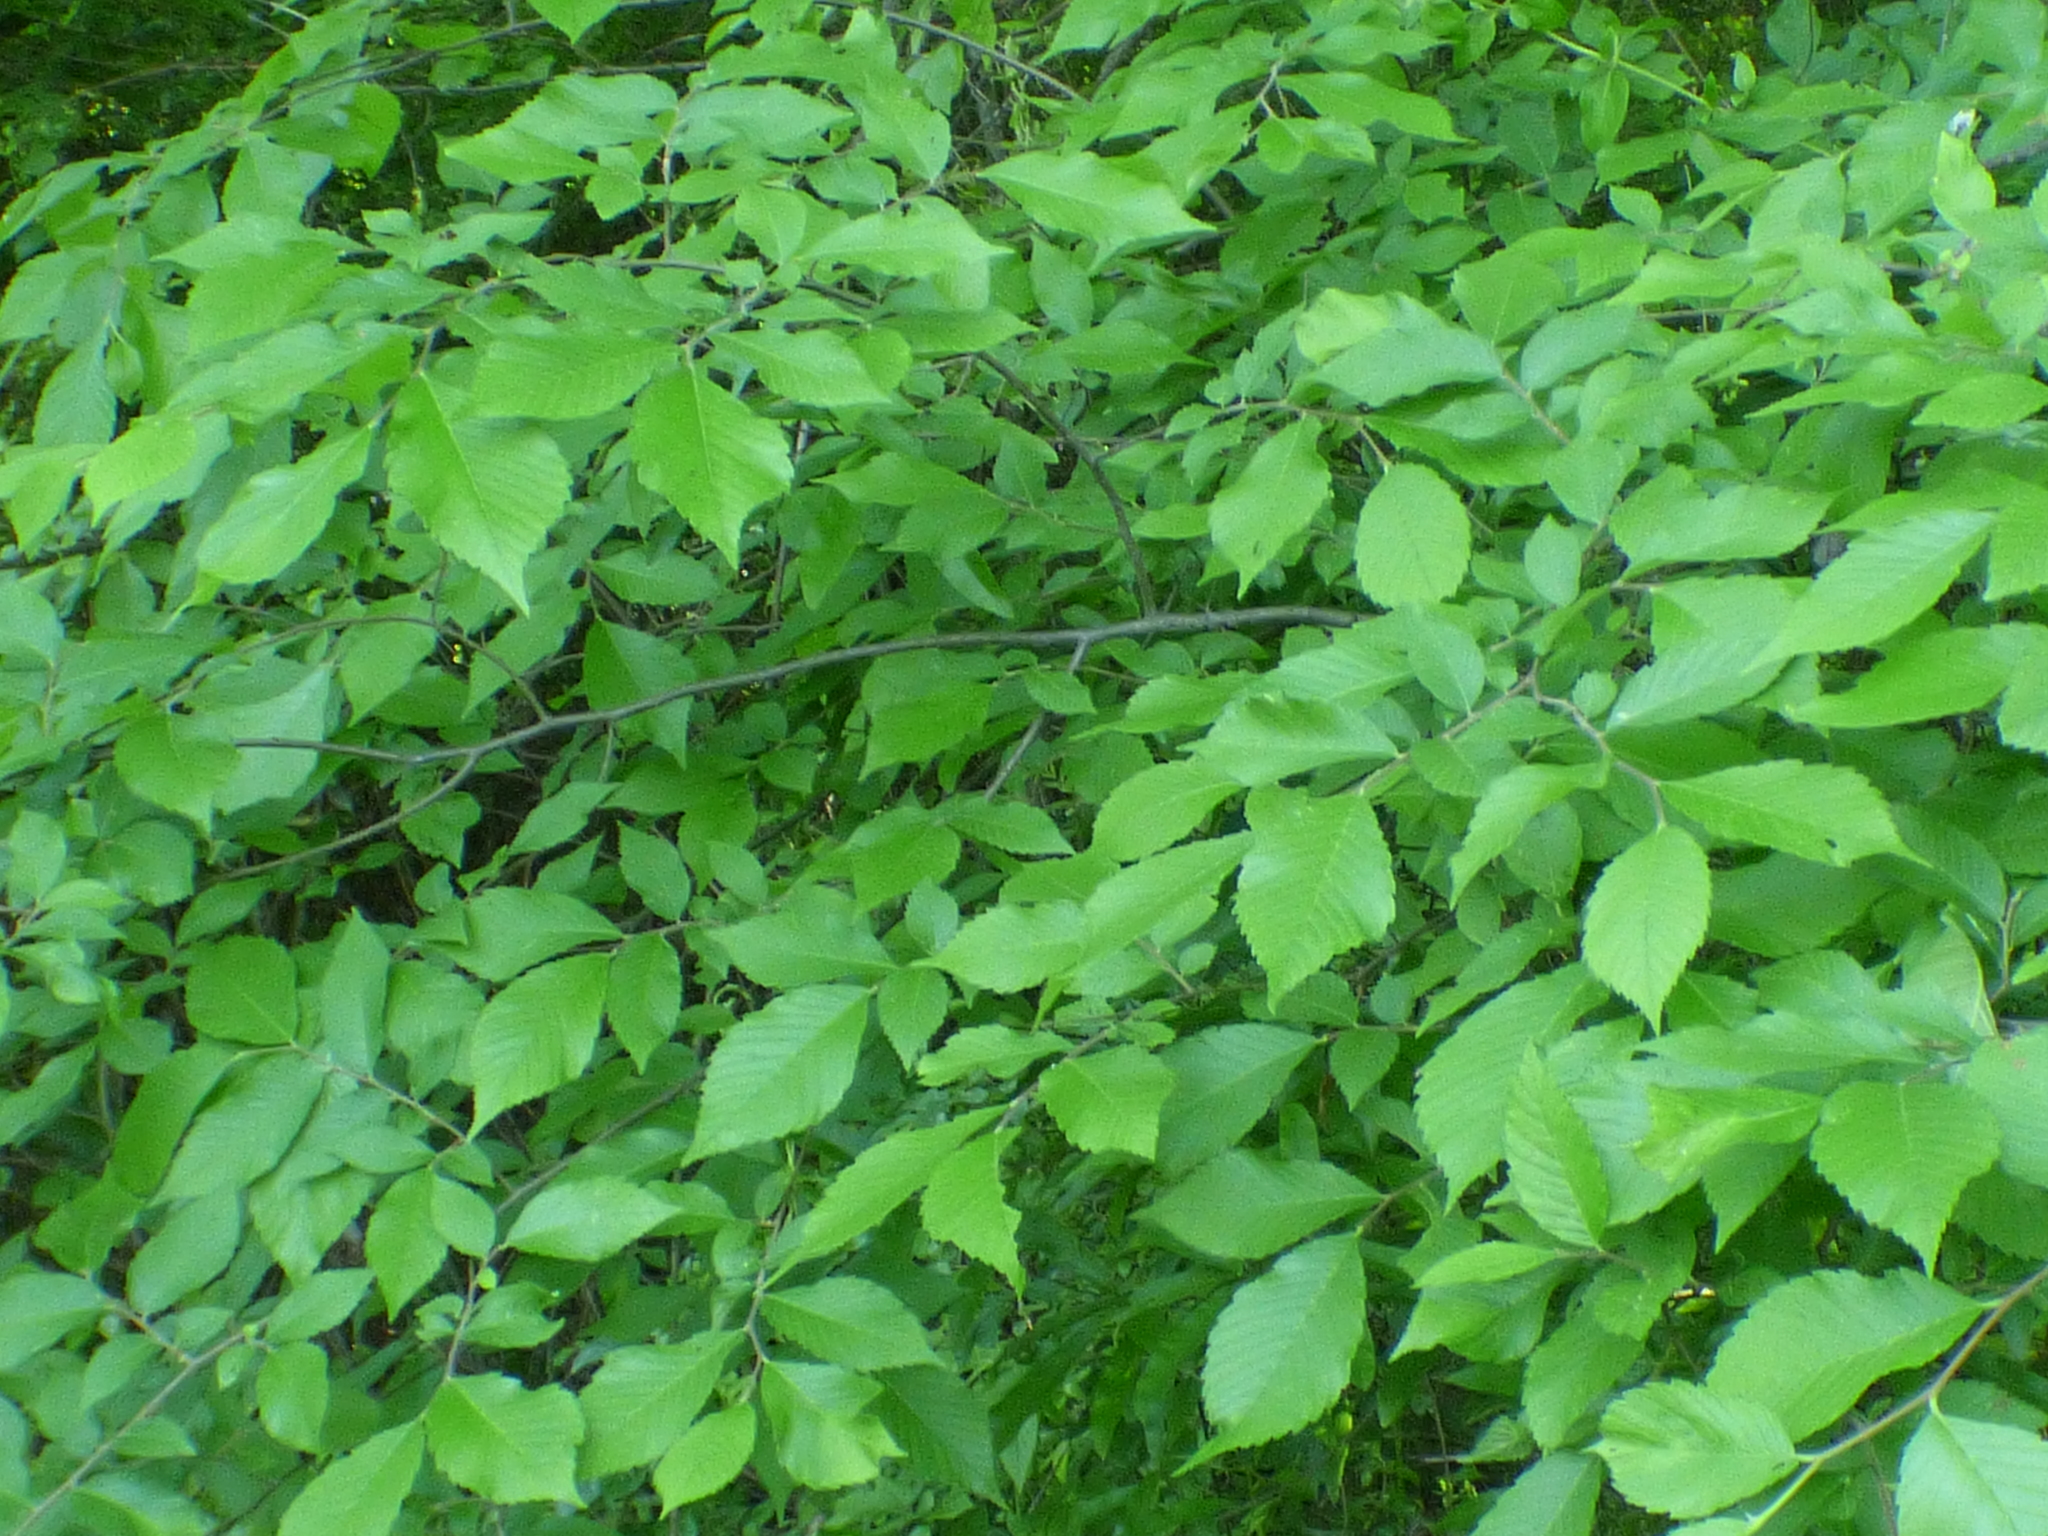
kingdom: Plantae
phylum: Tracheophyta
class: Magnoliopsida
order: Rosales
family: Ulmaceae
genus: Ulmus
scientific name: Ulmus americana
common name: American elm
